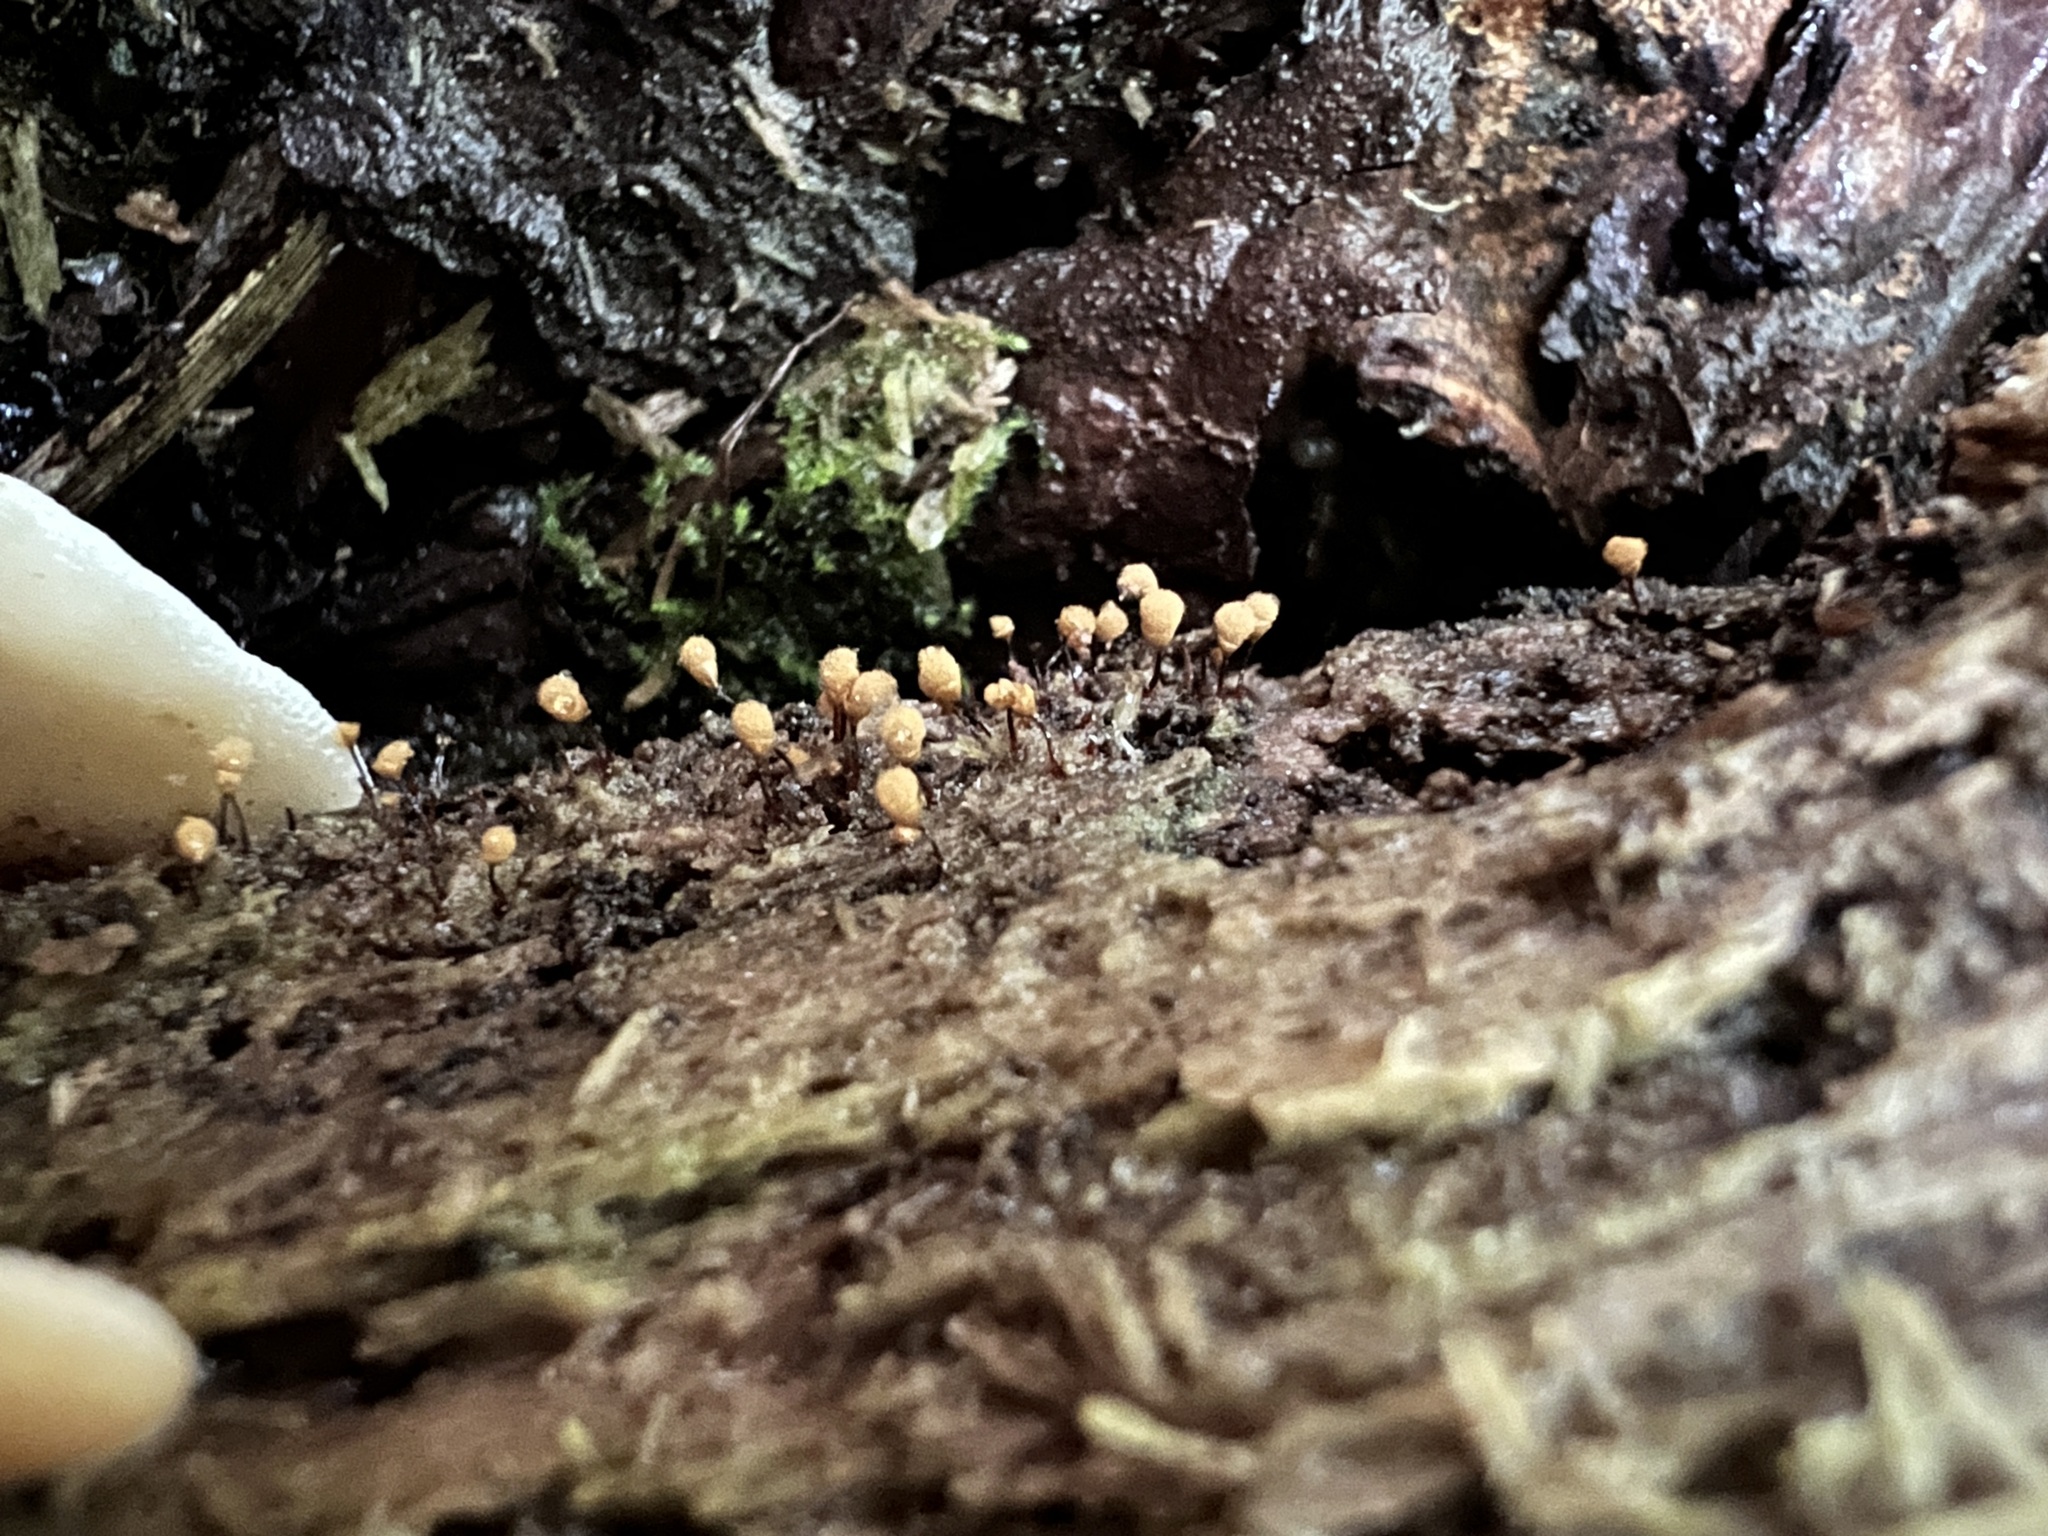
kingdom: Protozoa
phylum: Mycetozoa
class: Myxomycetes
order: Trichiales
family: Arcyriaceae
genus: Hemitrichia
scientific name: Hemitrichia calyculata
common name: Push pin slime mold
